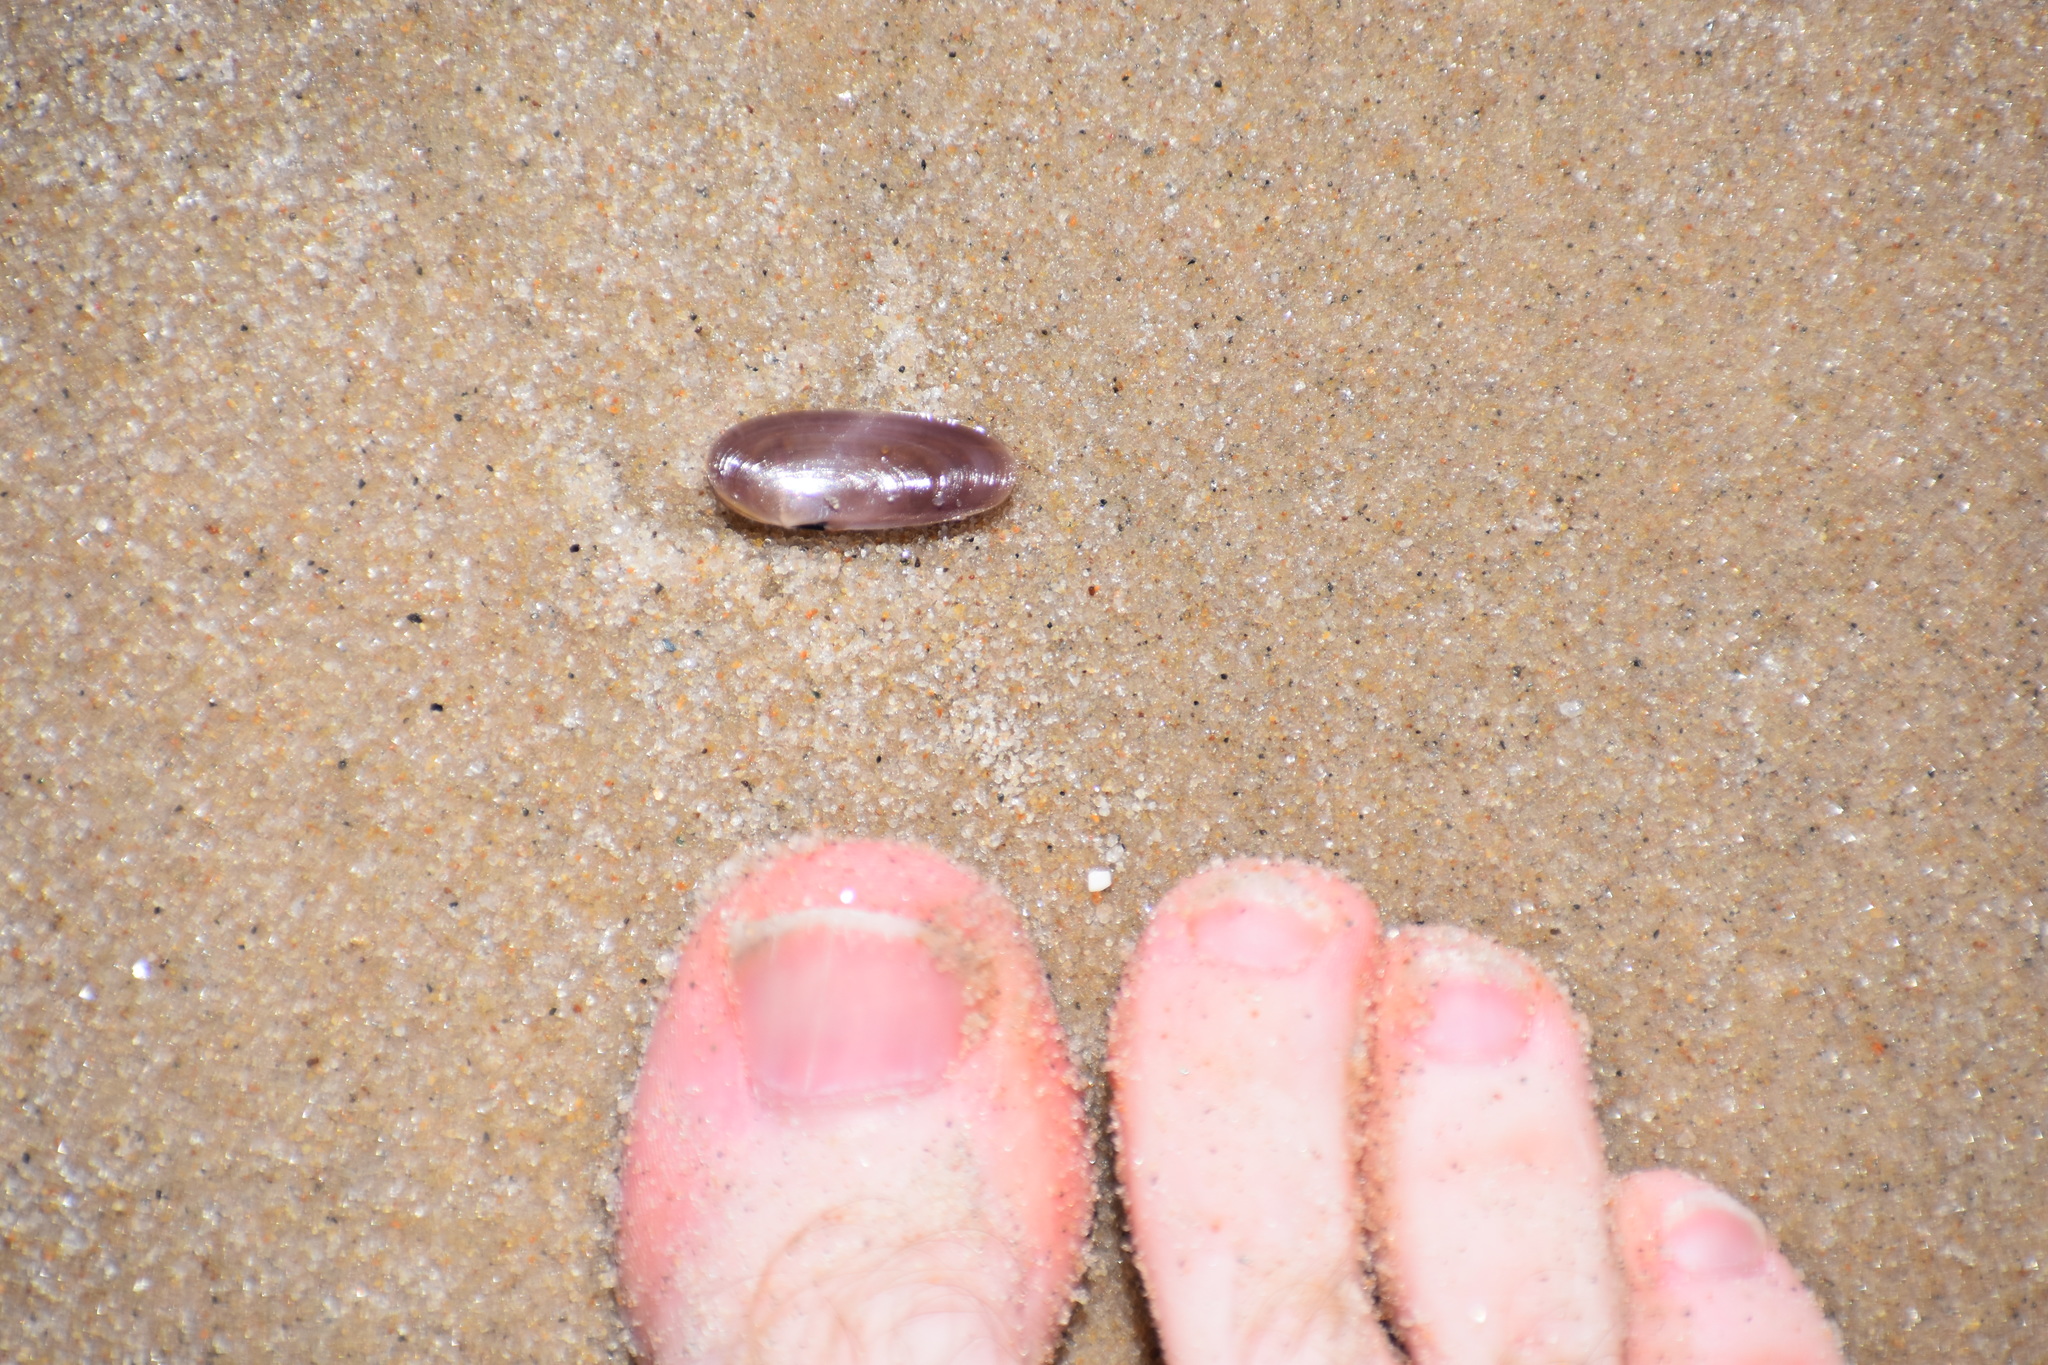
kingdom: Animalia
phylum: Mollusca
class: Bivalvia
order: Adapedonta
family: Pharidae
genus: Siliqua
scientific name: Siliqua costata
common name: Atlantic razor
